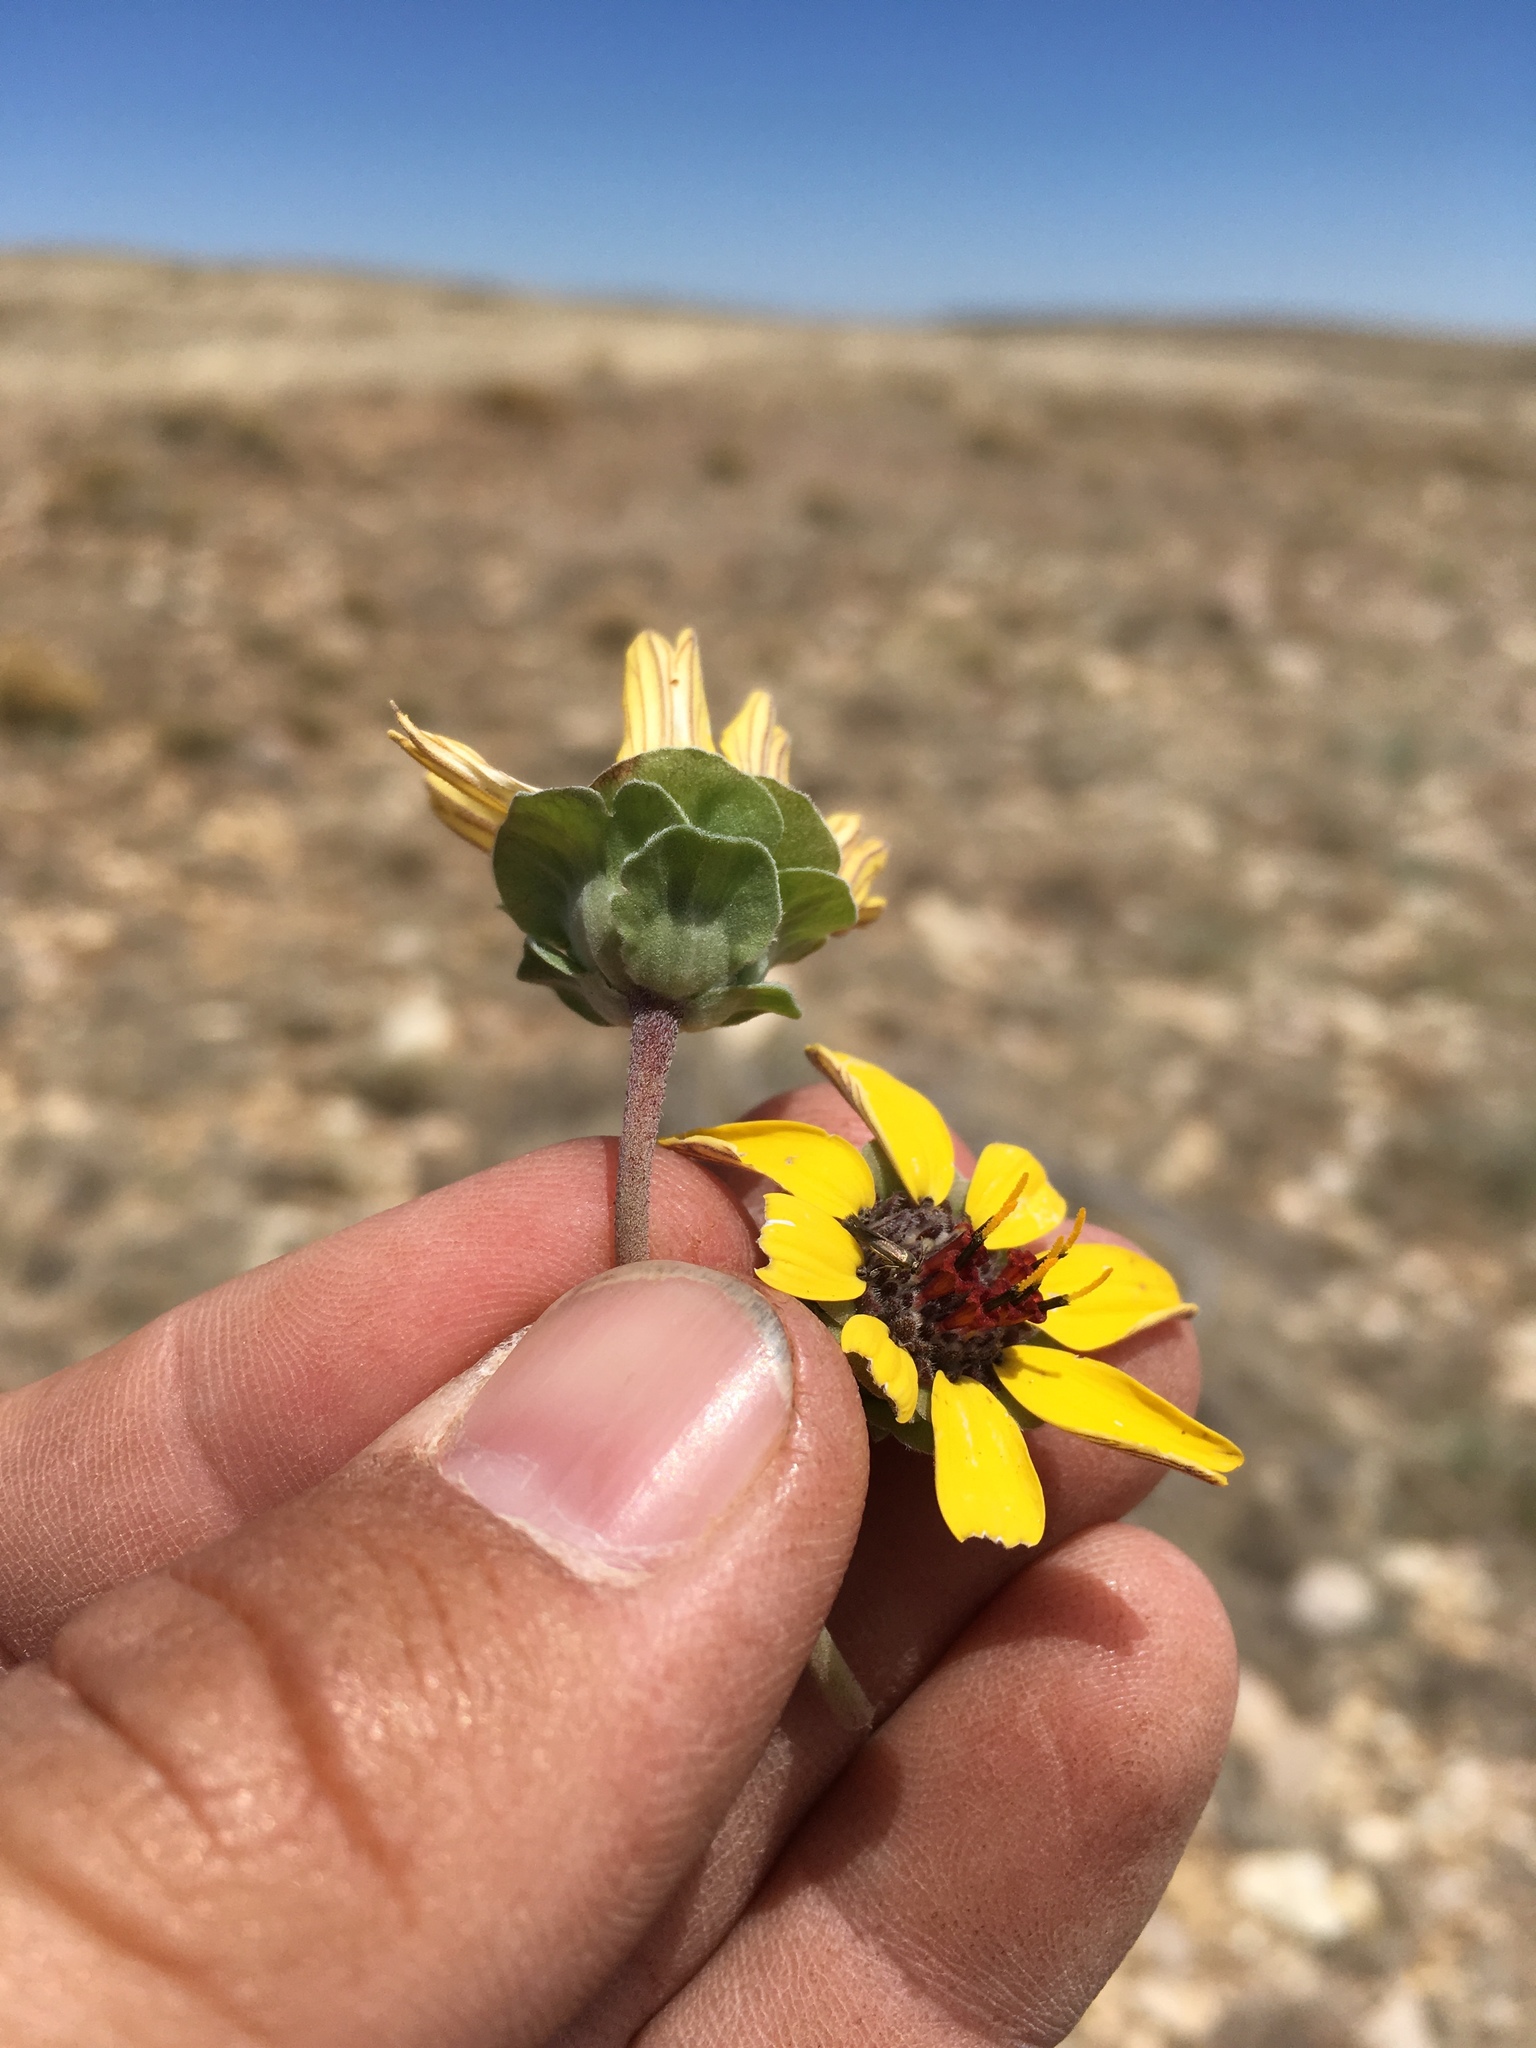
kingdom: Plantae
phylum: Tracheophyta
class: Magnoliopsida
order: Asterales
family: Asteraceae
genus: Berlandiera
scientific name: Berlandiera lyrata
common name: Chocolate-flower
